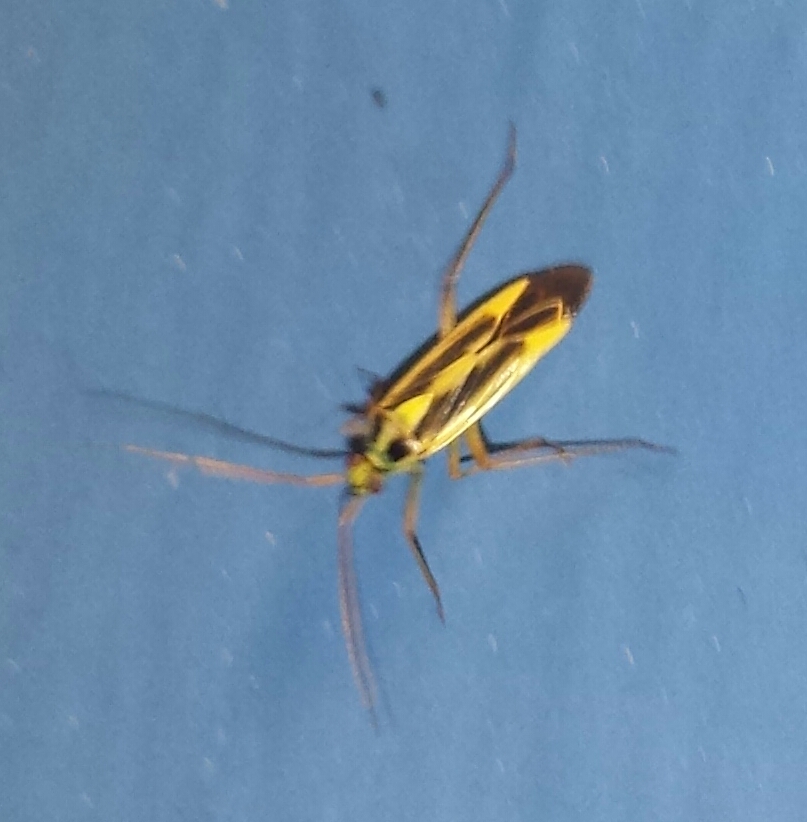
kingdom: Animalia
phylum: Arthropoda
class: Insecta
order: Hemiptera
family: Miridae
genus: Stenotus
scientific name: Stenotus binotatus
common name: Plant bug
